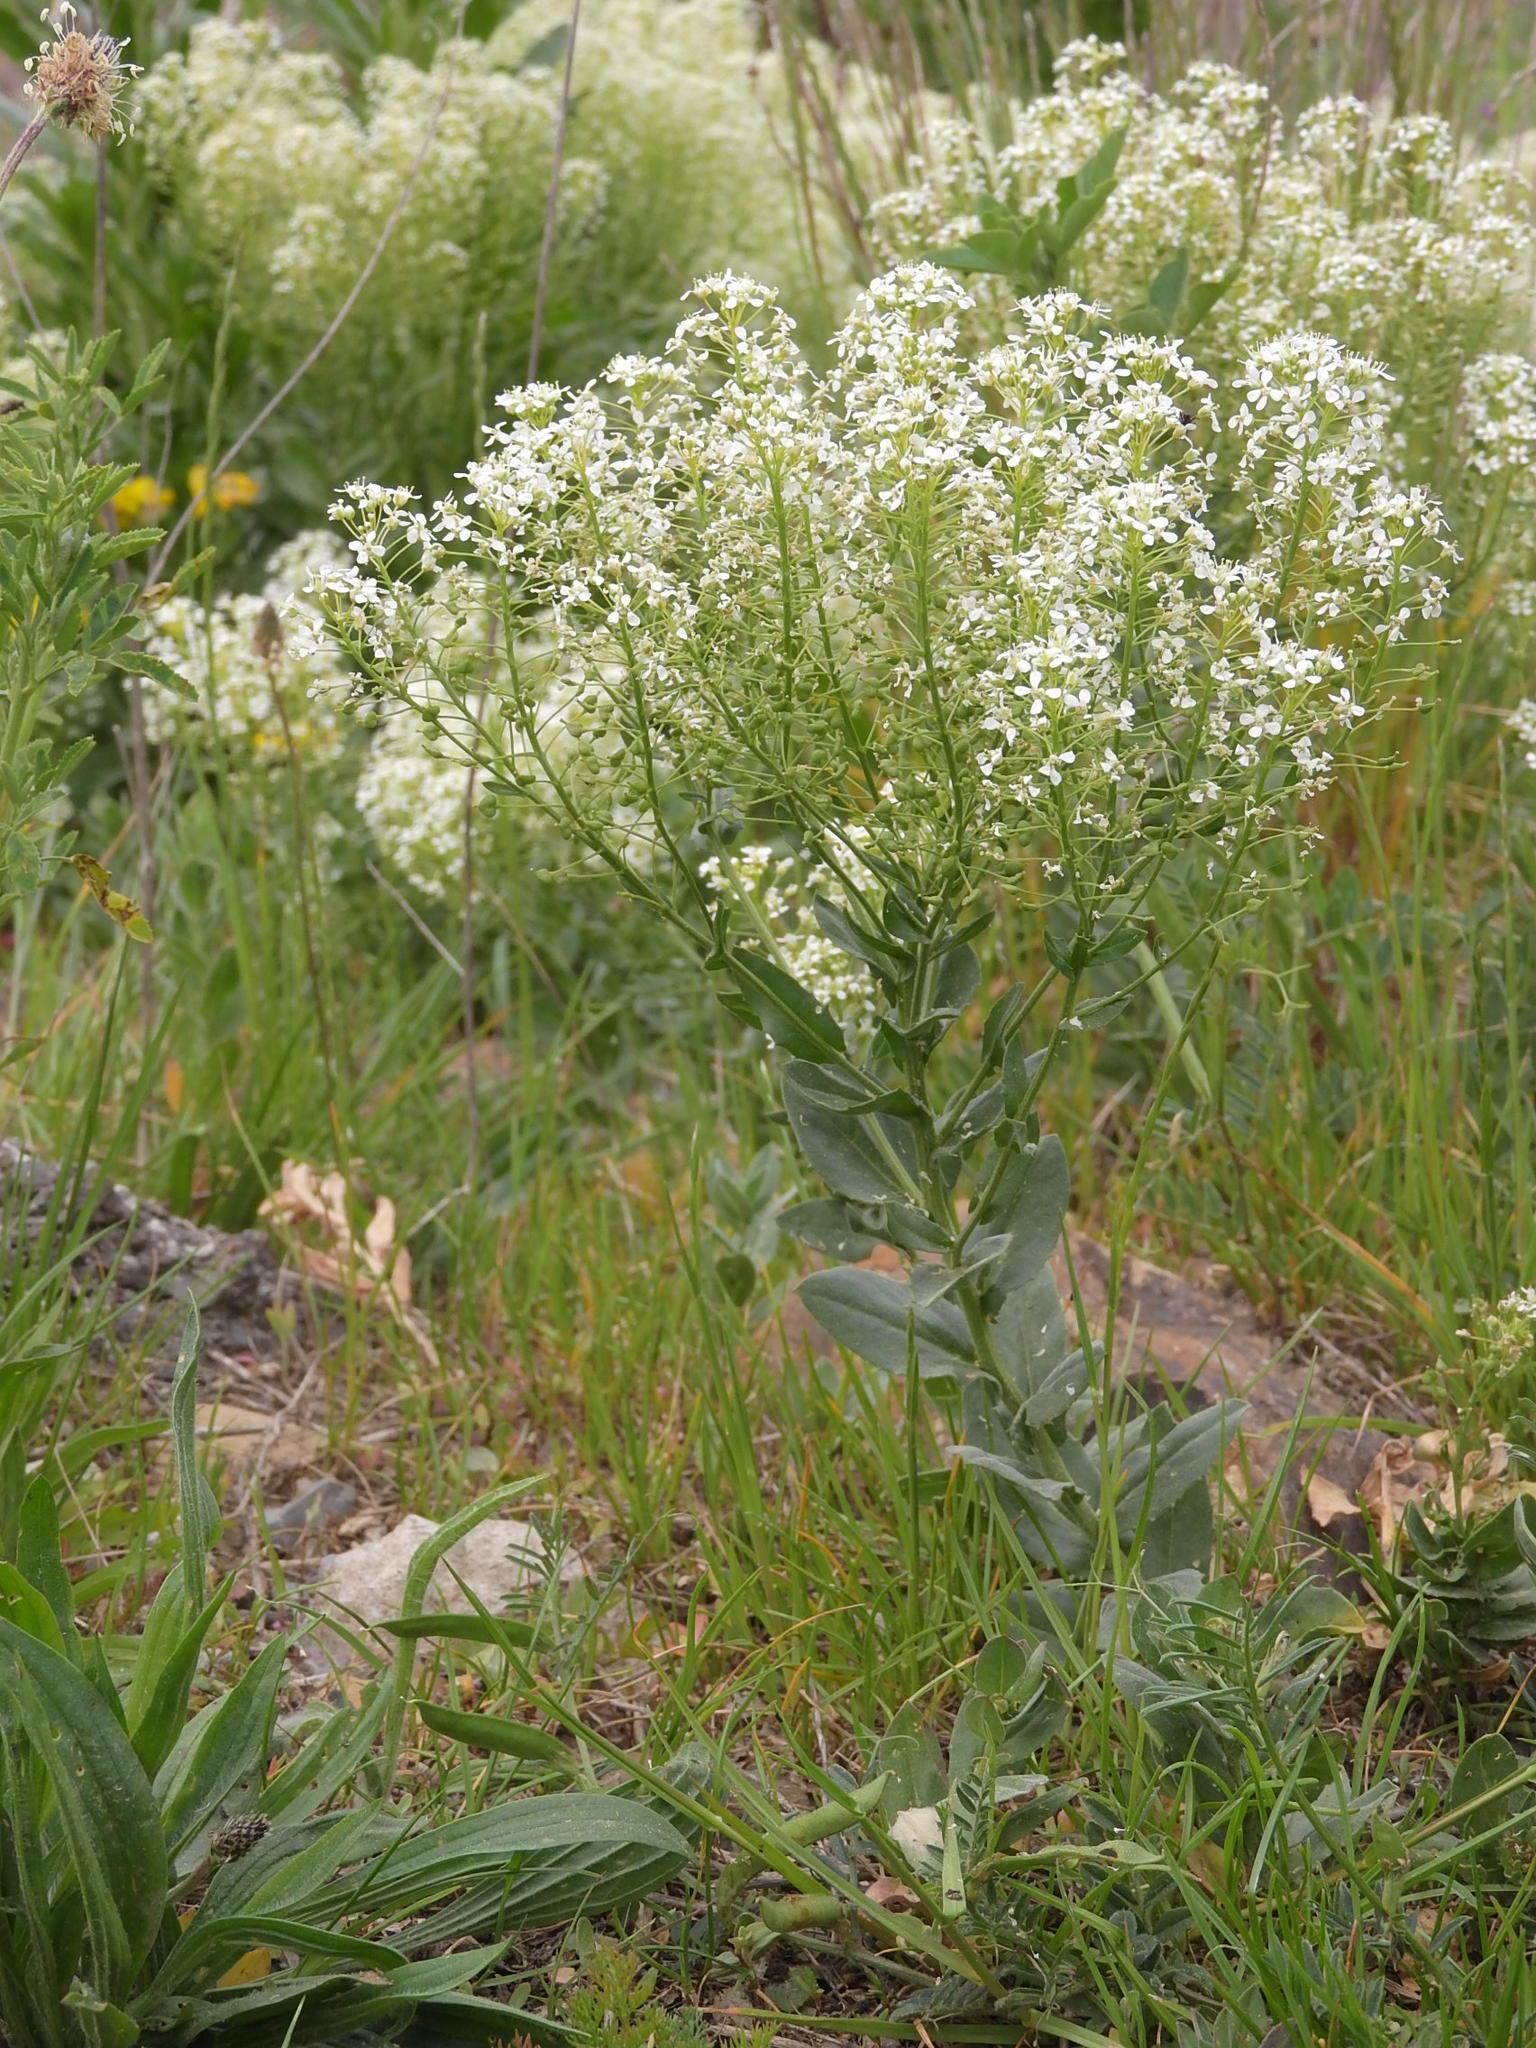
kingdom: Plantae
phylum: Tracheophyta
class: Magnoliopsida
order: Brassicales
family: Brassicaceae
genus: Lepidium
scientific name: Lepidium draba
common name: Hoary cress
